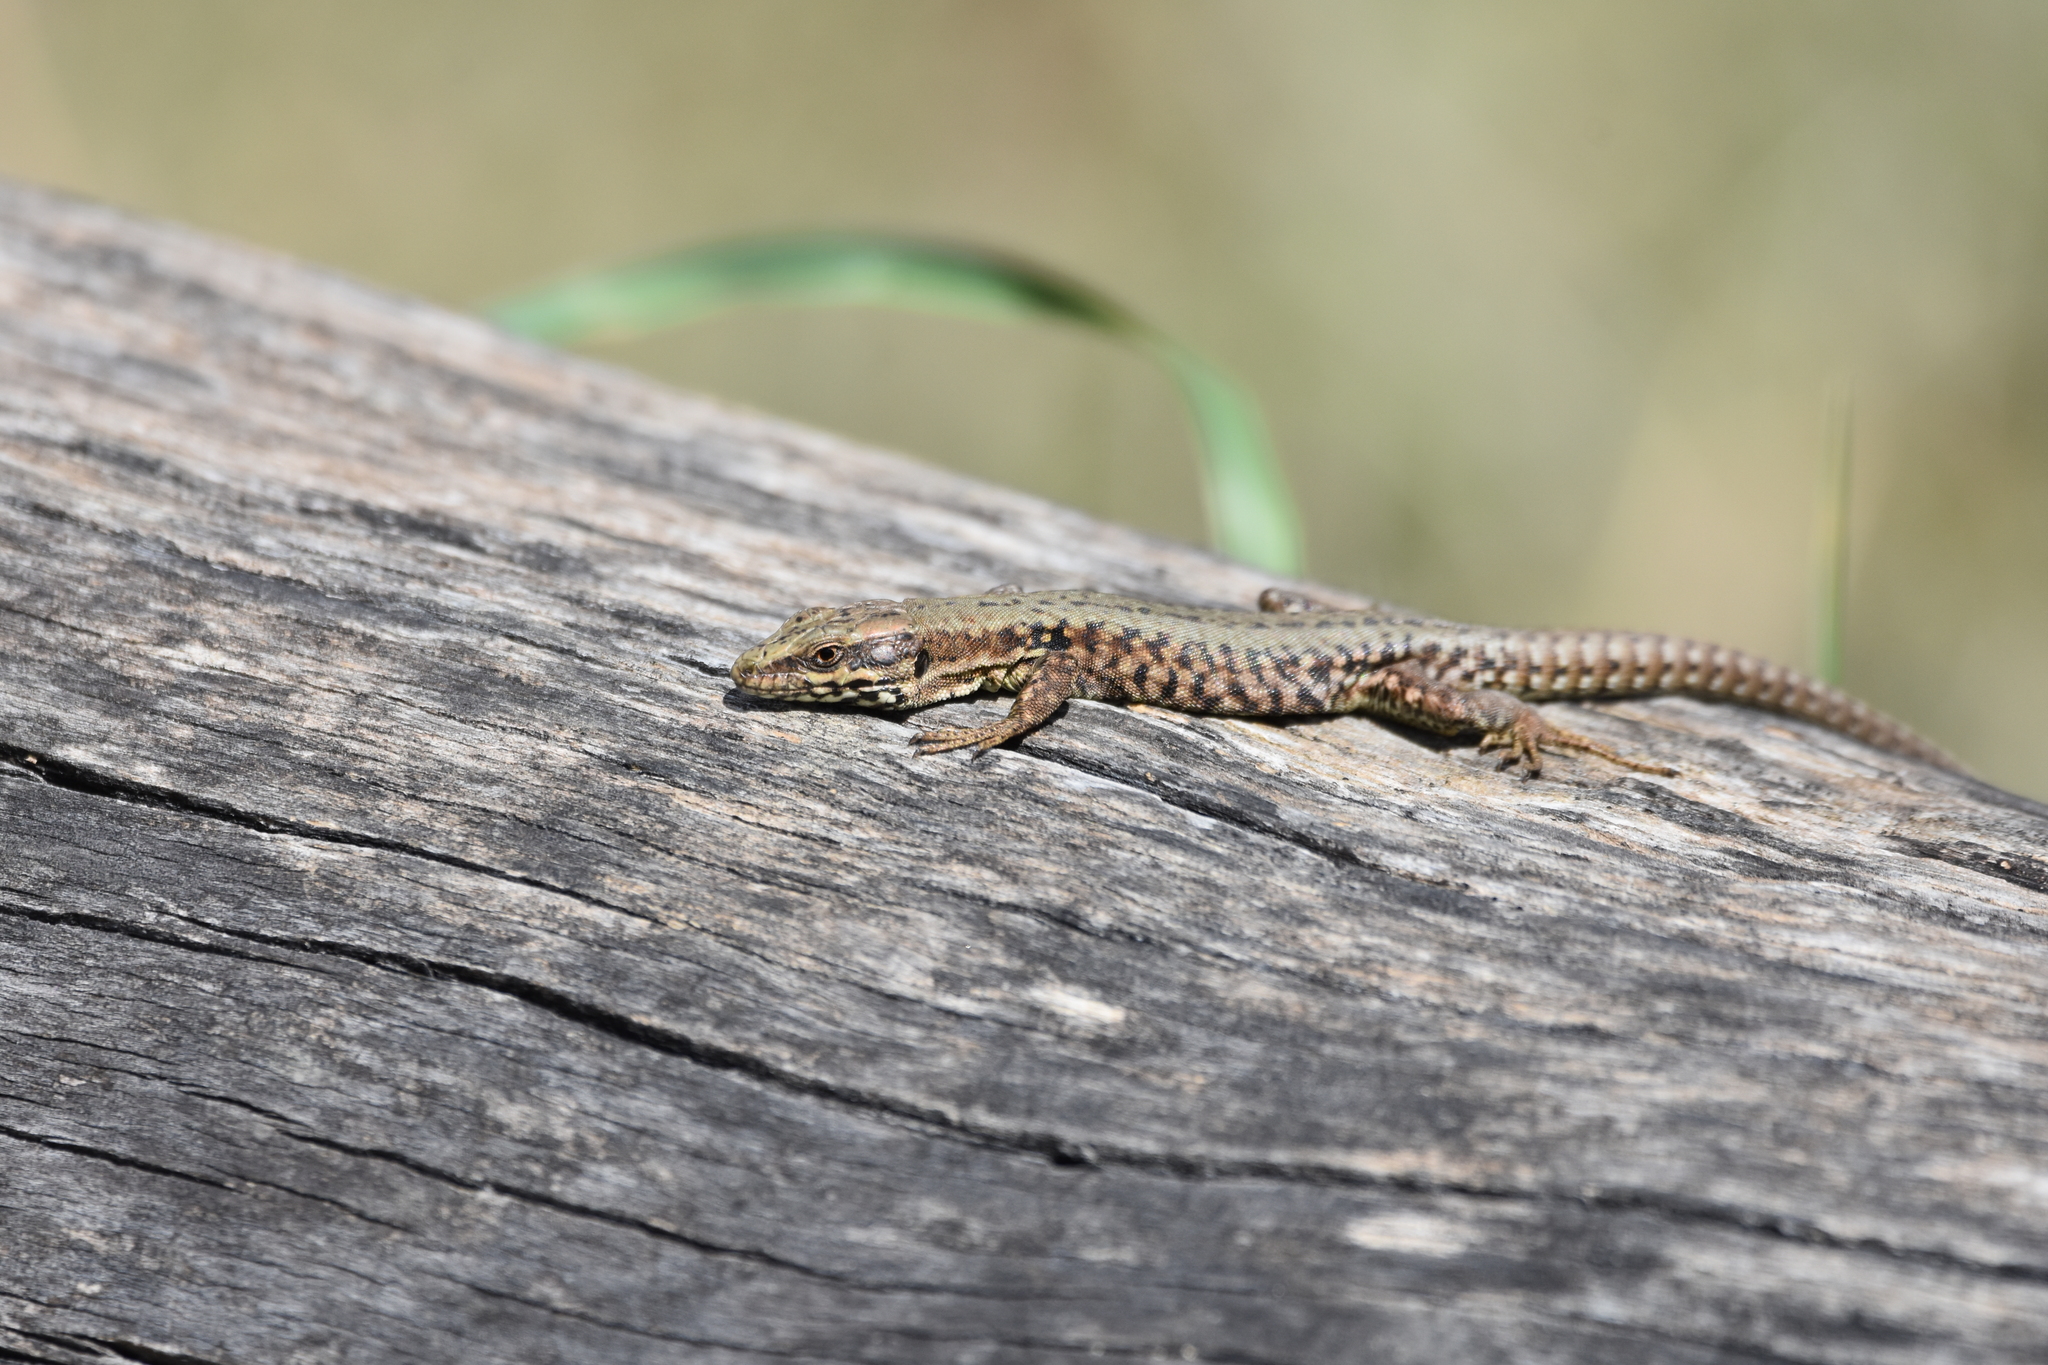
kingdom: Animalia
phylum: Chordata
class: Squamata
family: Lacertidae
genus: Podarcis
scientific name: Podarcis muralis
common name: Common wall lizard
